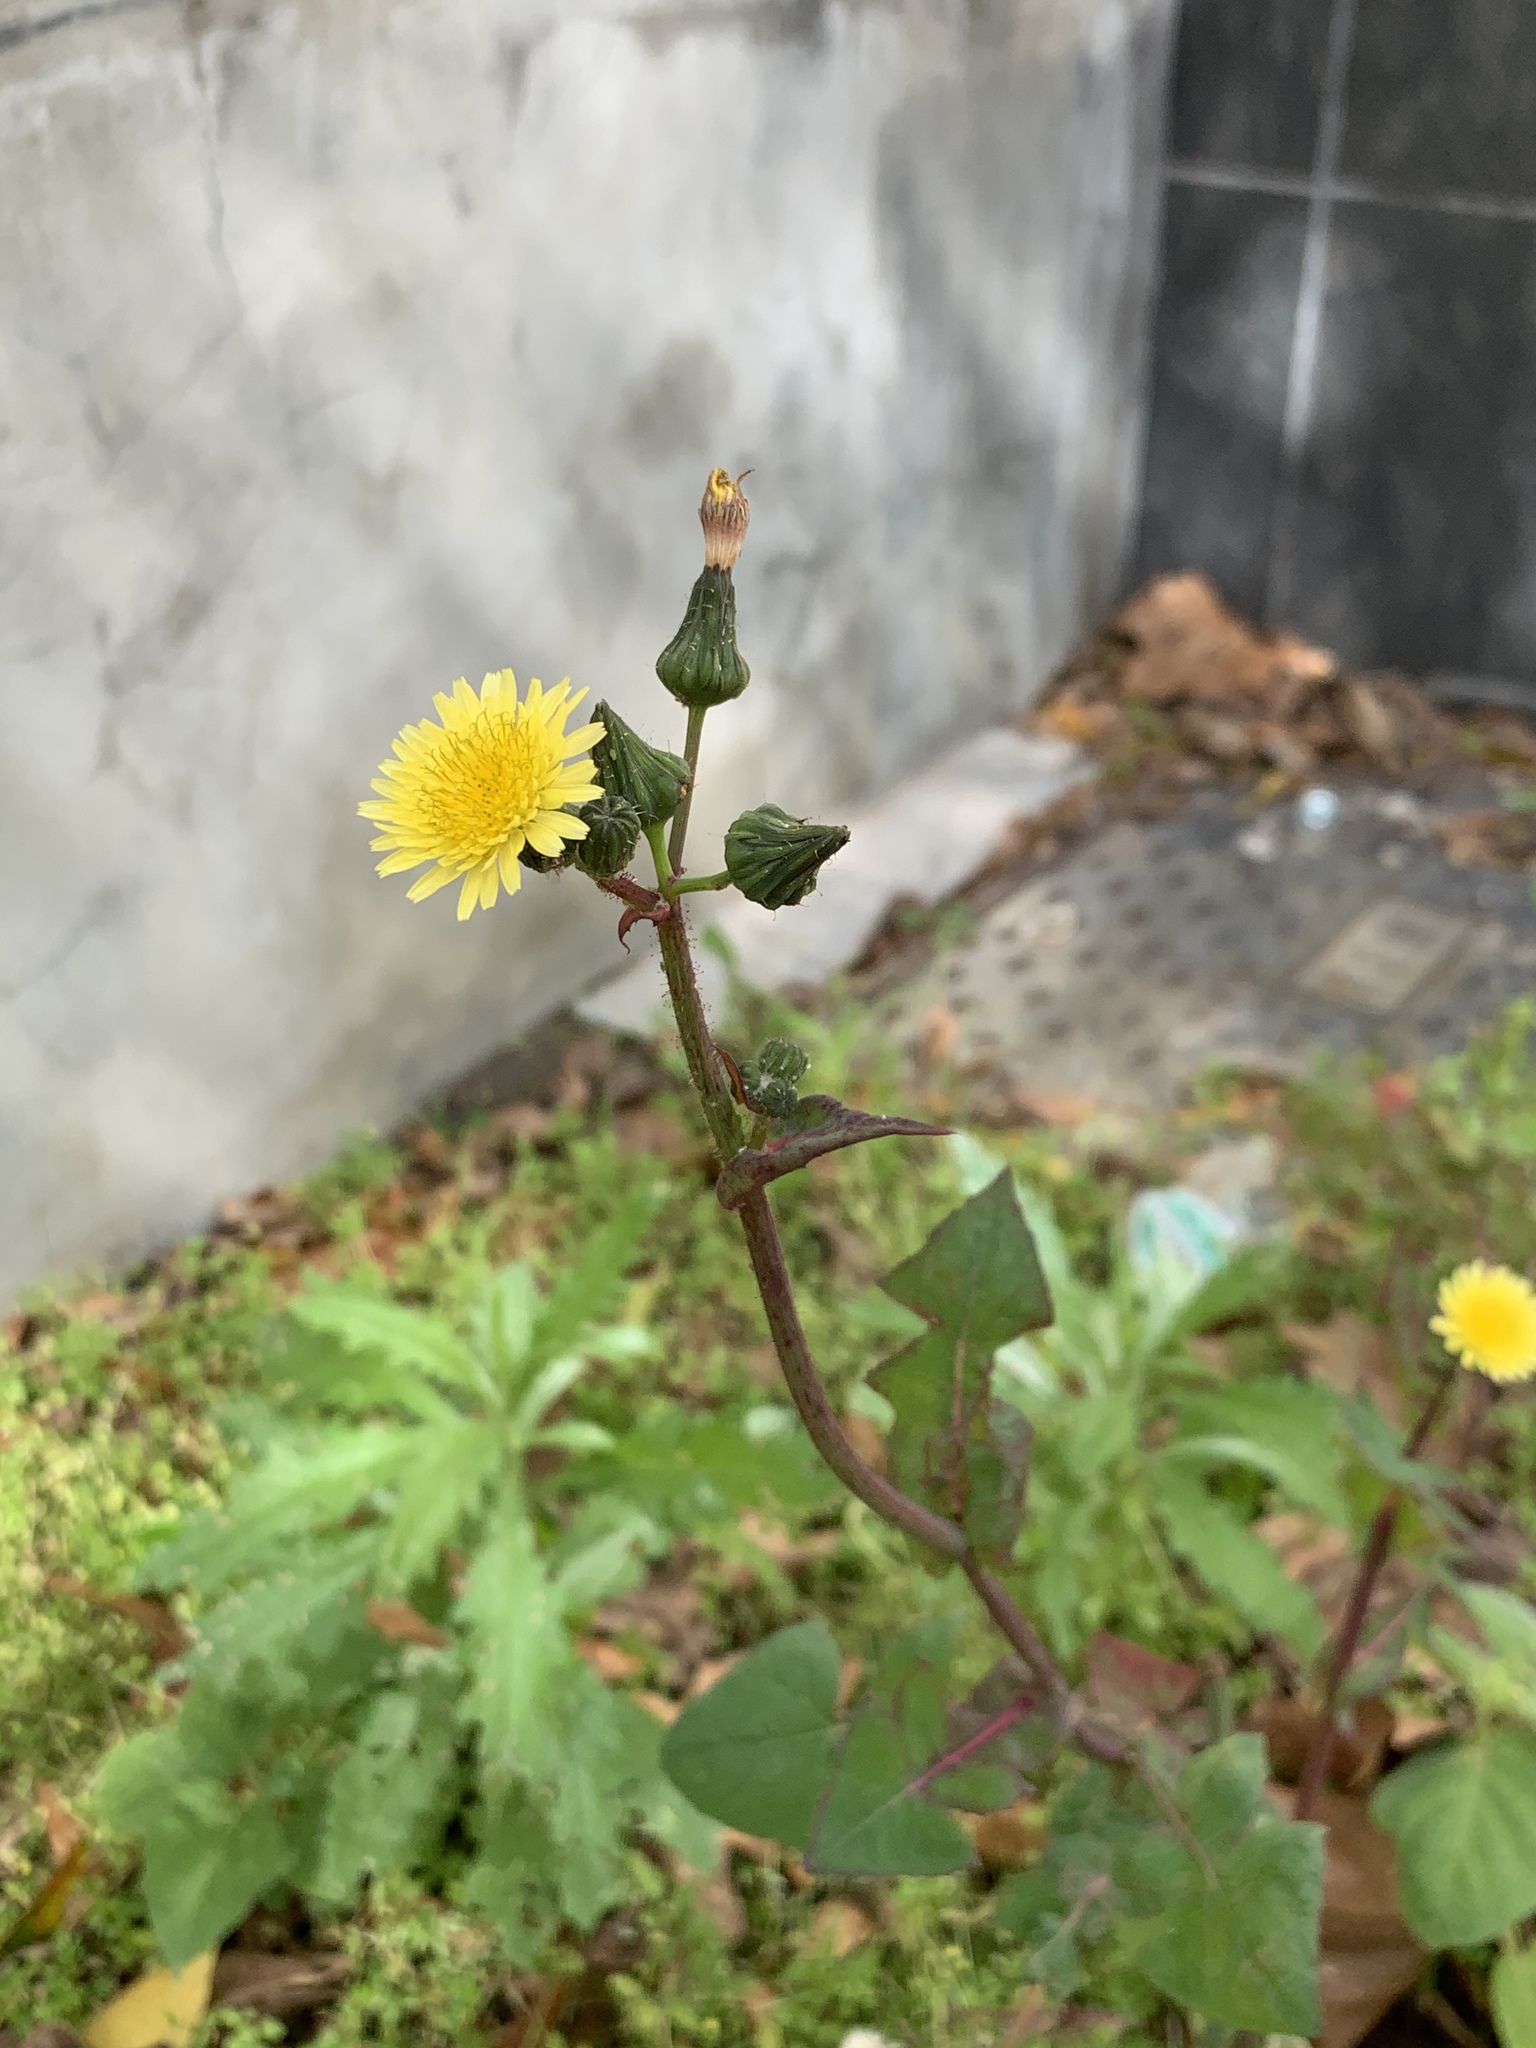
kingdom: Plantae
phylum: Tracheophyta
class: Magnoliopsida
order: Asterales
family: Asteraceae
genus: Sonchus
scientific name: Sonchus oleraceus
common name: Common sowthistle
